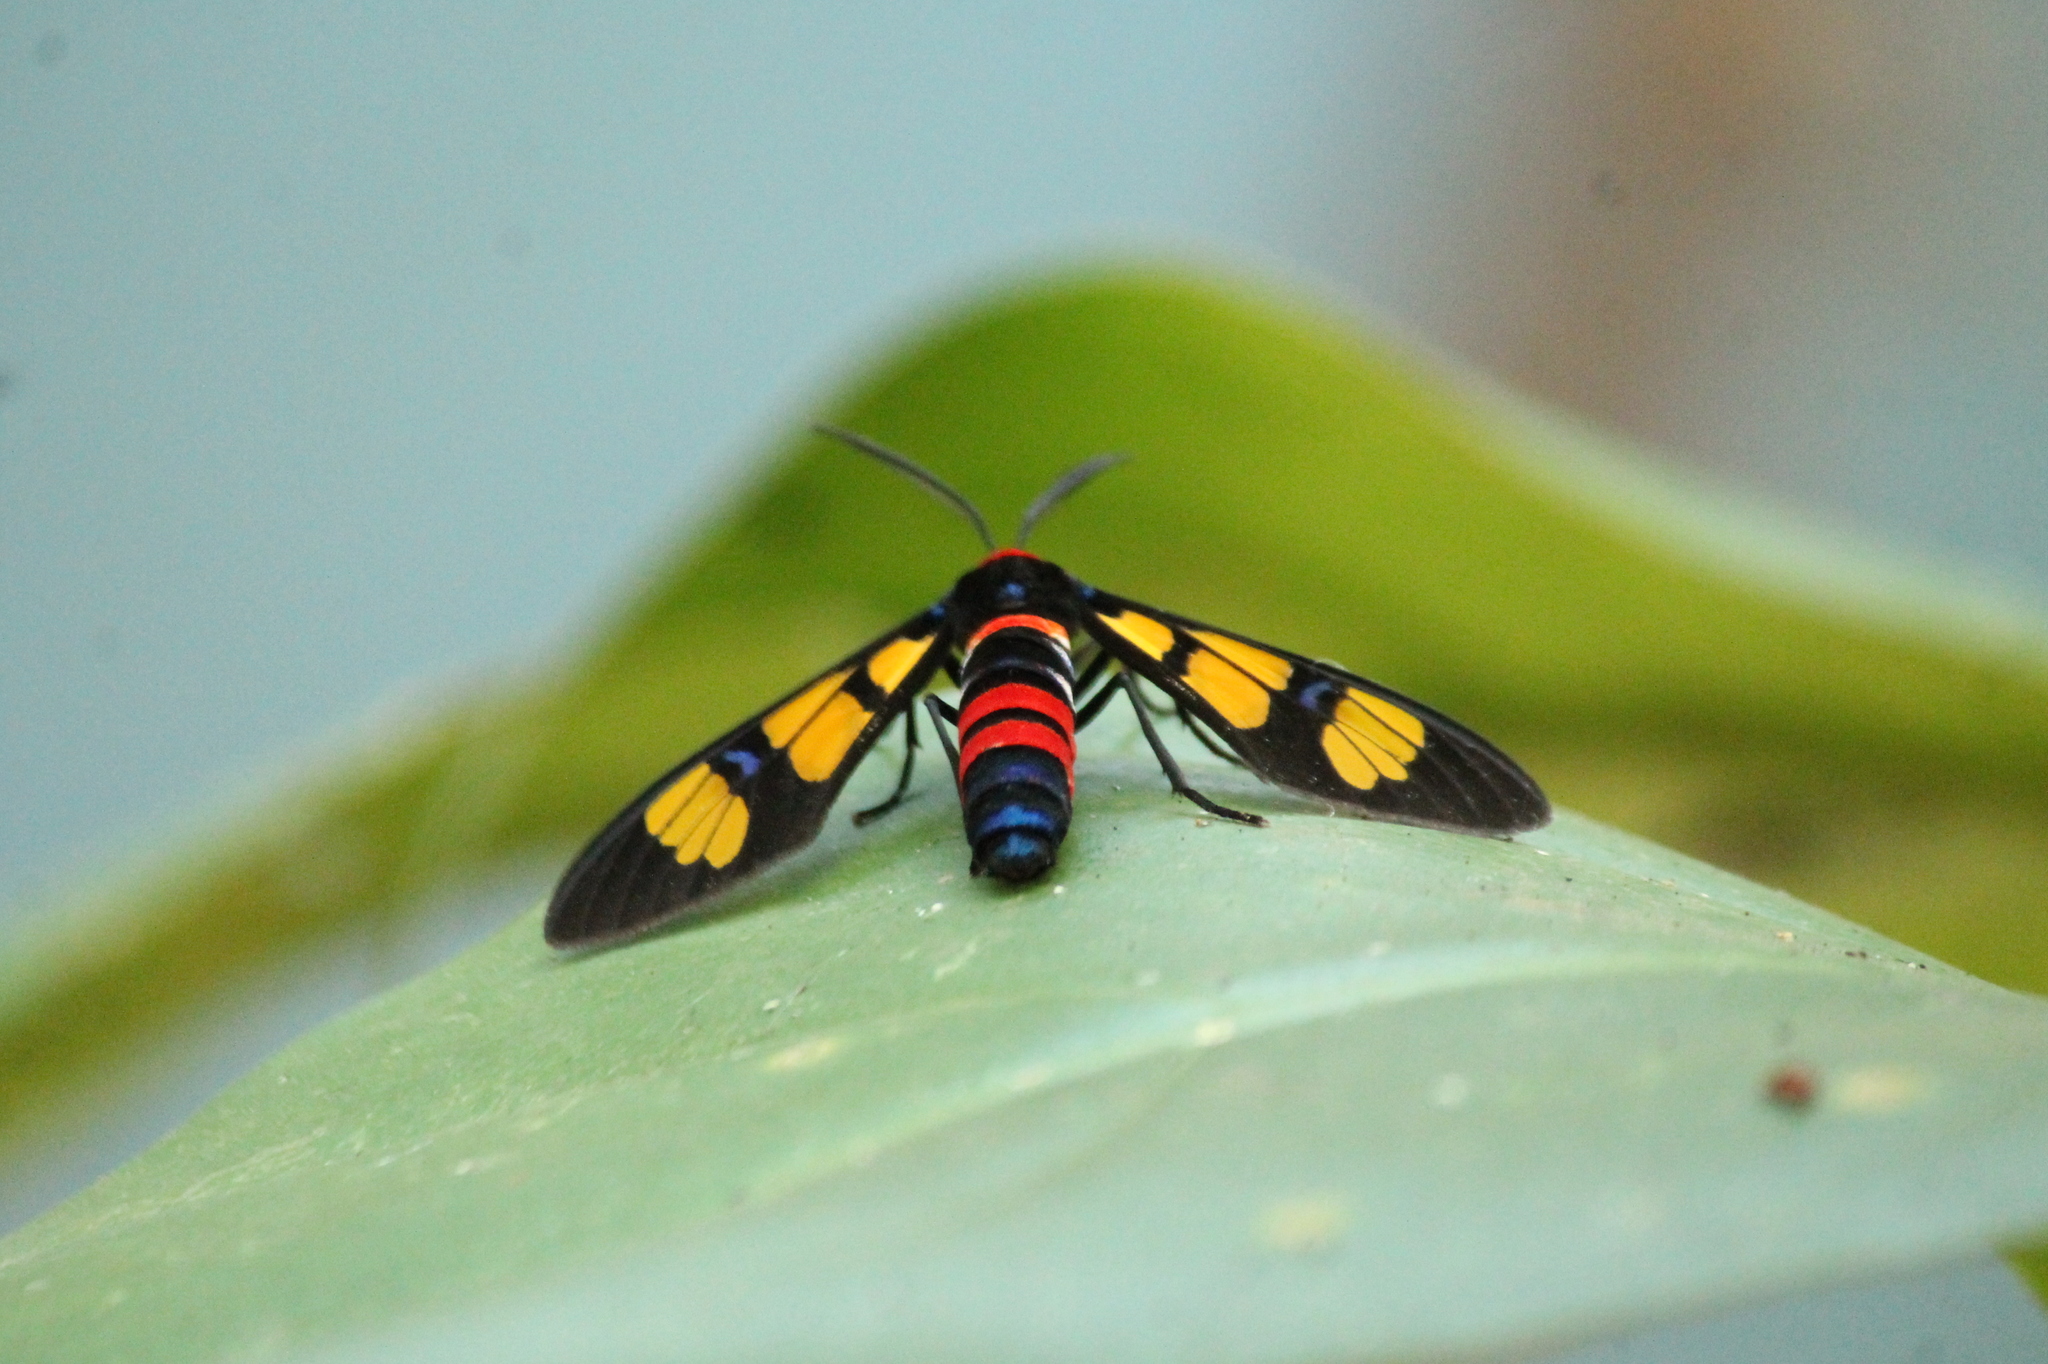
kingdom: Animalia
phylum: Arthropoda
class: Insecta
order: Lepidoptera
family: Erebidae
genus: Euchromia
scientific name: Euchromia polymena
